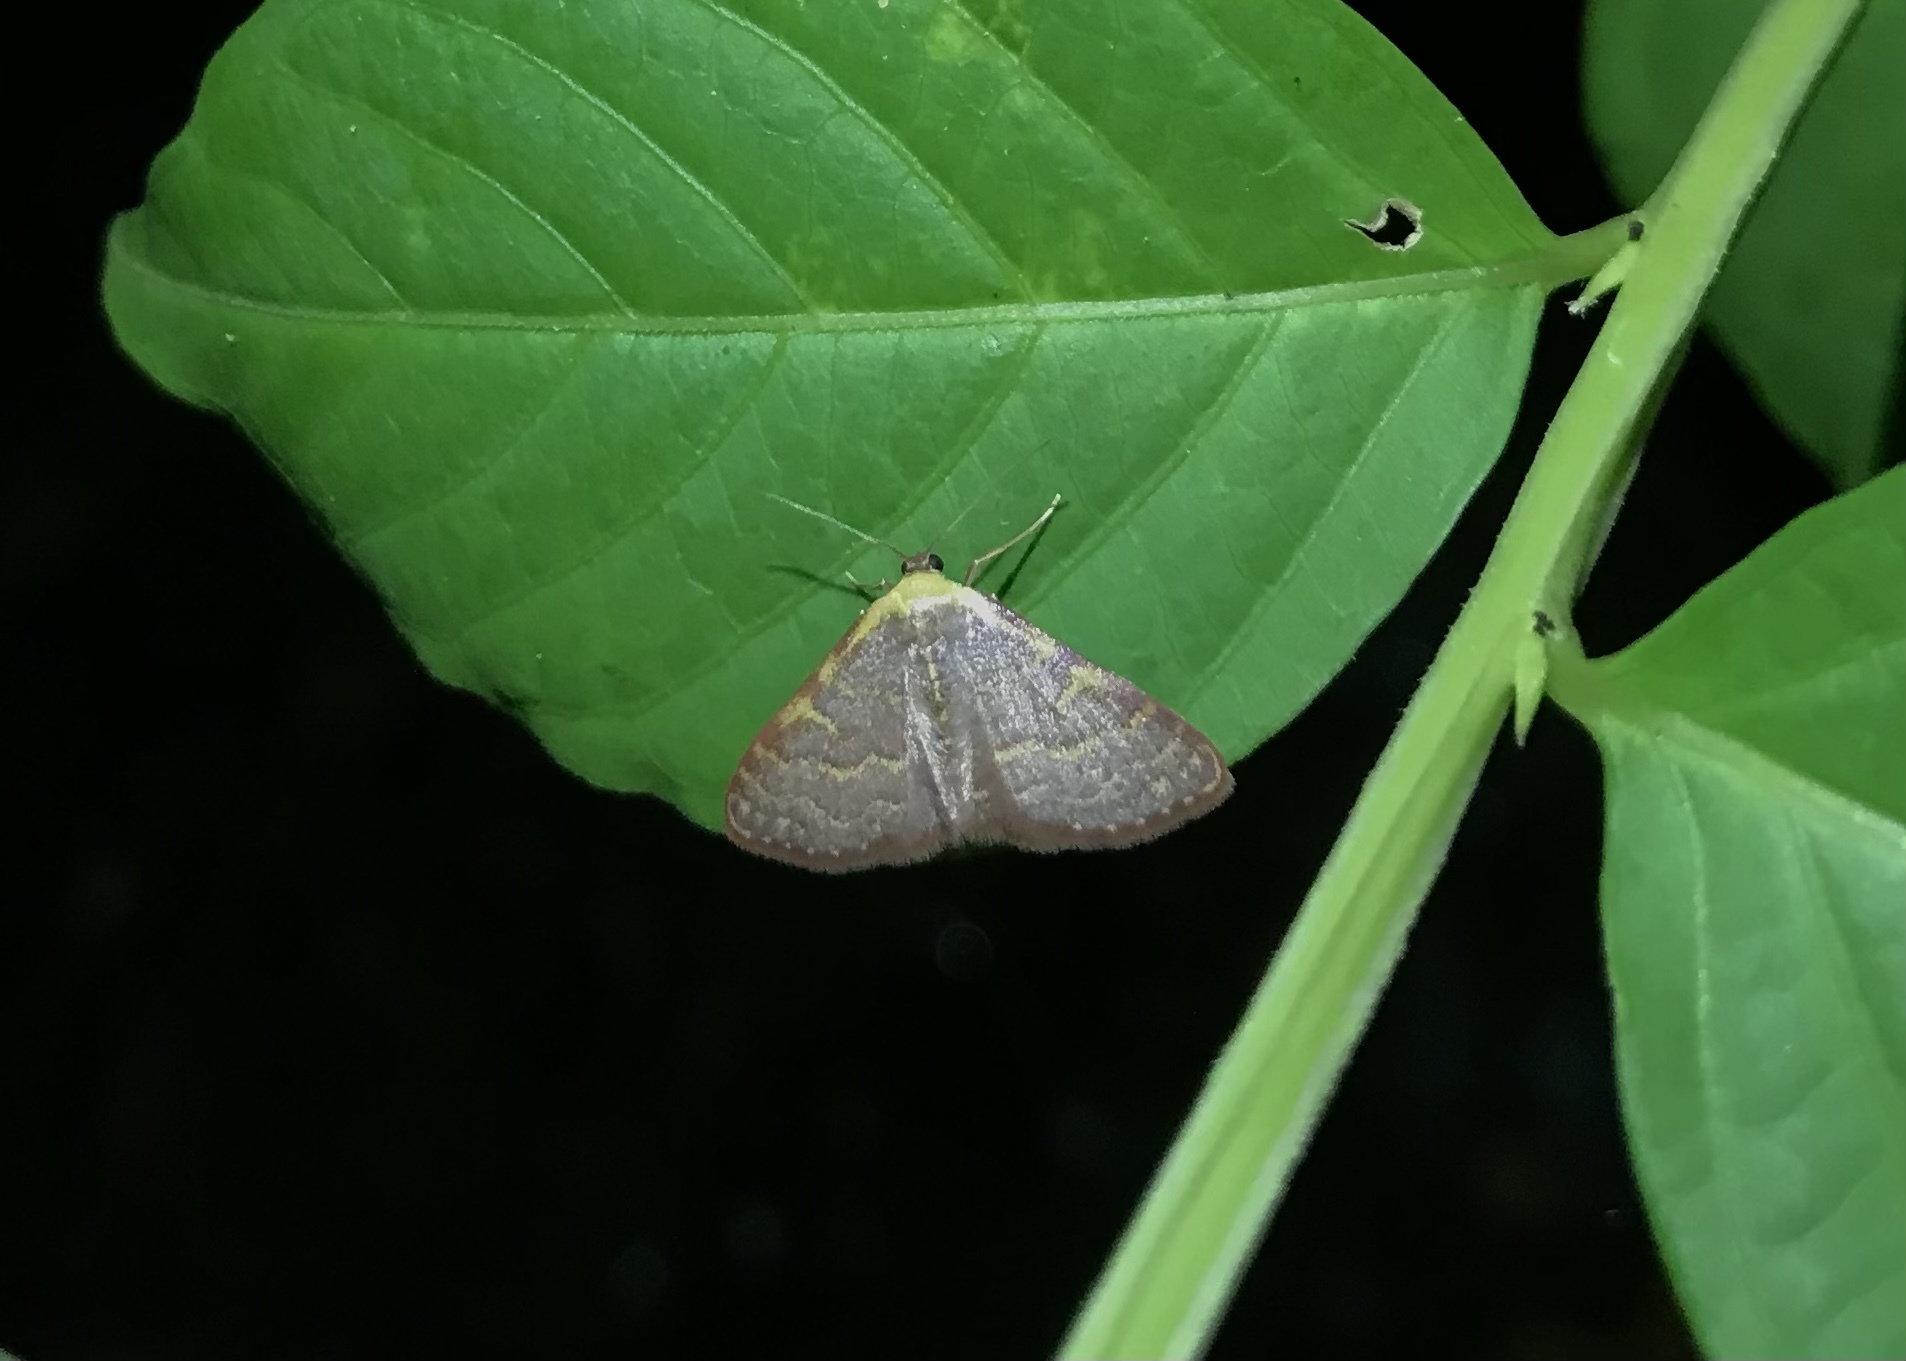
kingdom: Animalia
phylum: Arthropoda
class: Insecta
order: Lepidoptera
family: Geometridae
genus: Leptostales
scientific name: Leptostales pannaria
